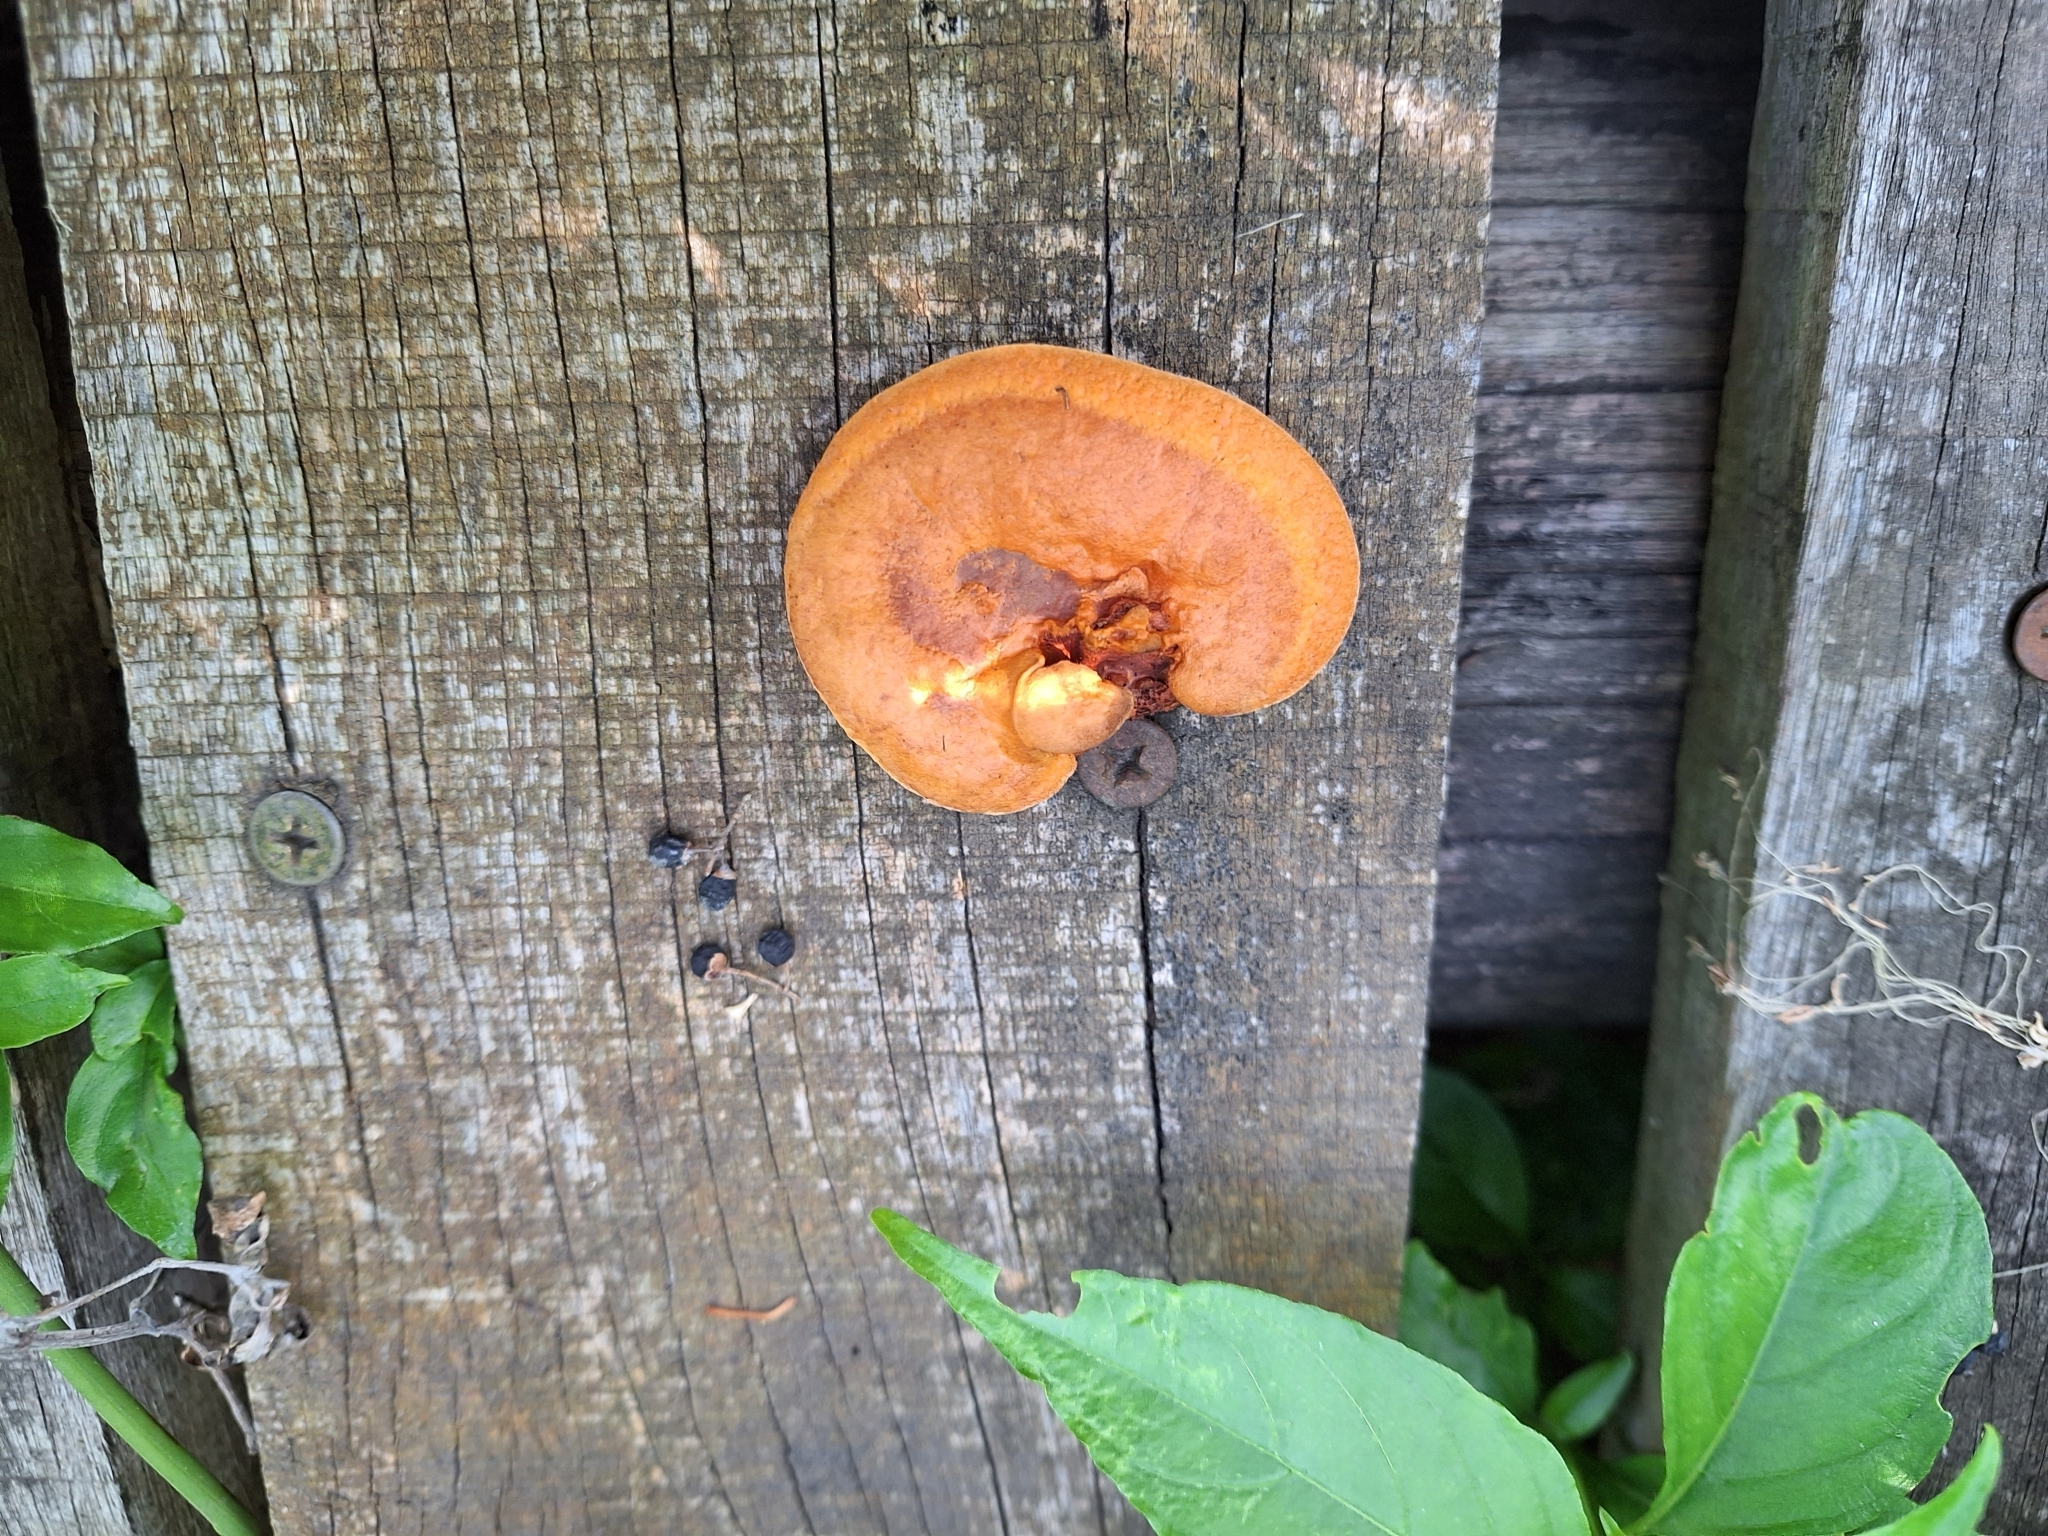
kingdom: Fungi
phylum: Basidiomycota
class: Agaricomycetes
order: Polyporales
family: Polyporaceae
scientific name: Polyporaceae
